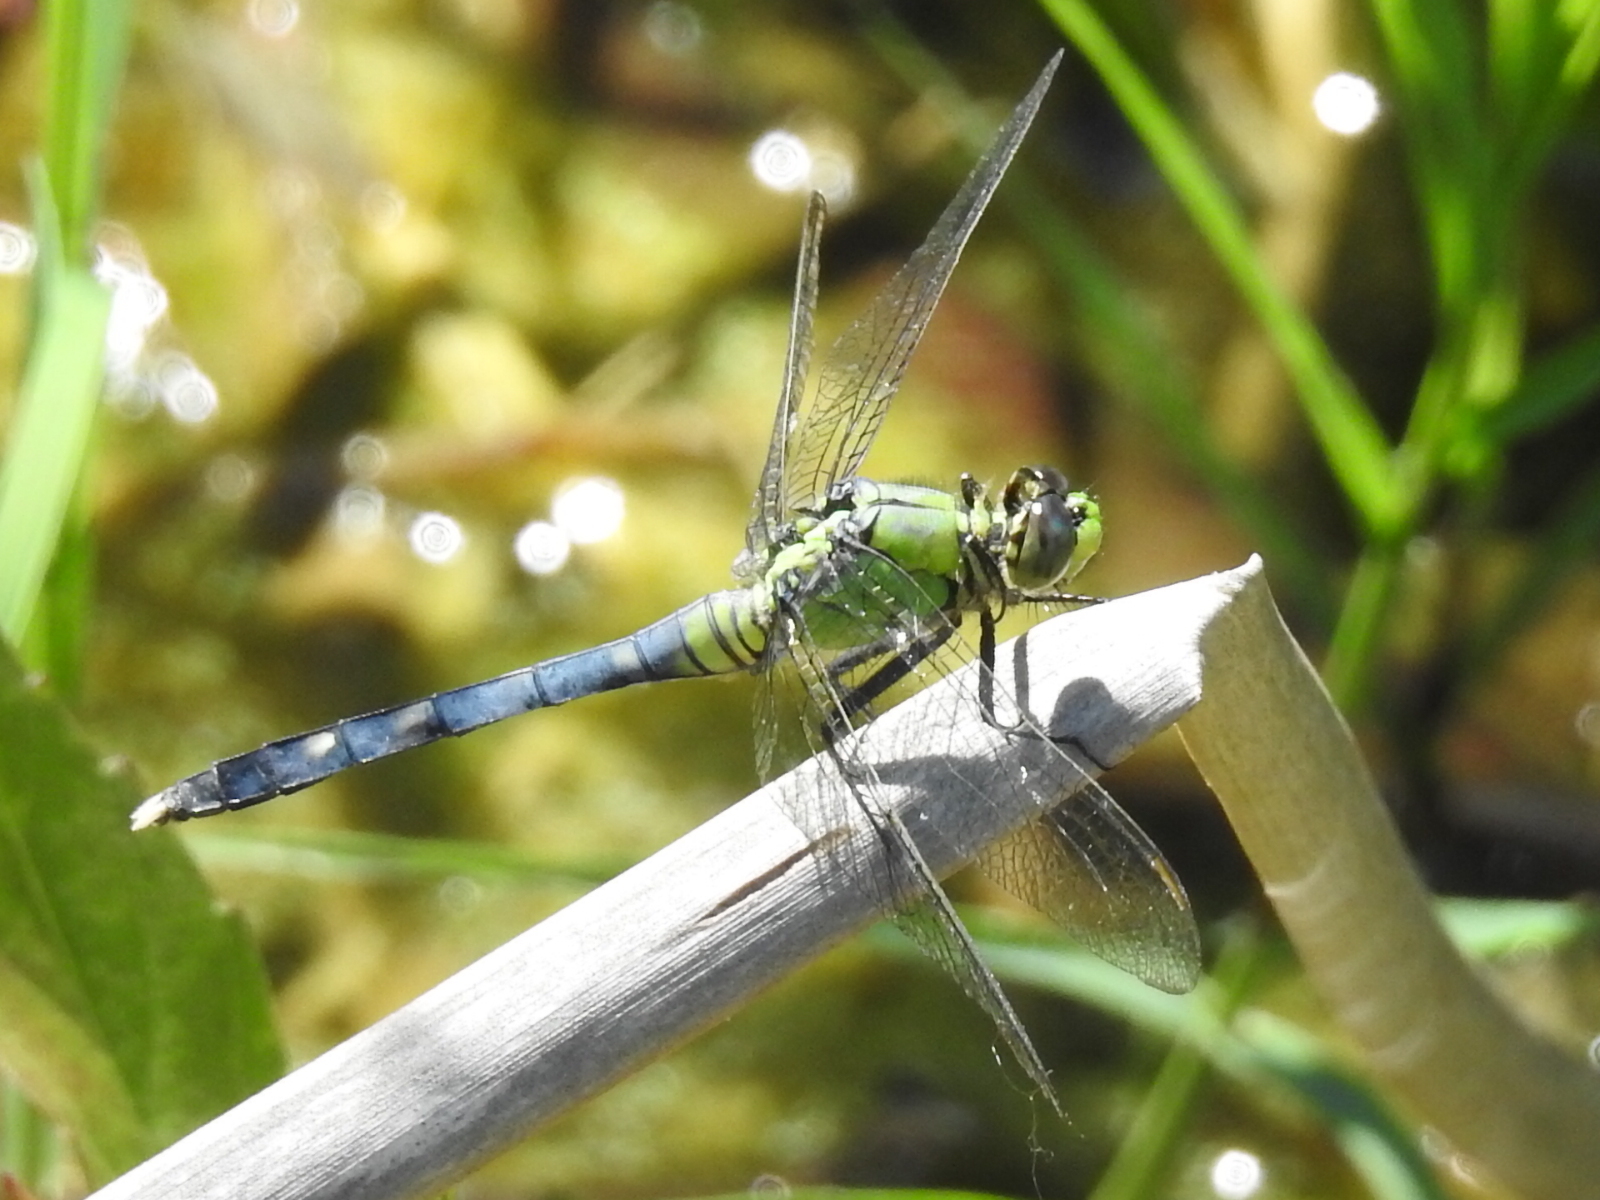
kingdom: Animalia
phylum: Arthropoda
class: Insecta
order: Odonata
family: Libellulidae
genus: Erythemis
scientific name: Erythemis simplicicollis
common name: Eastern pondhawk
